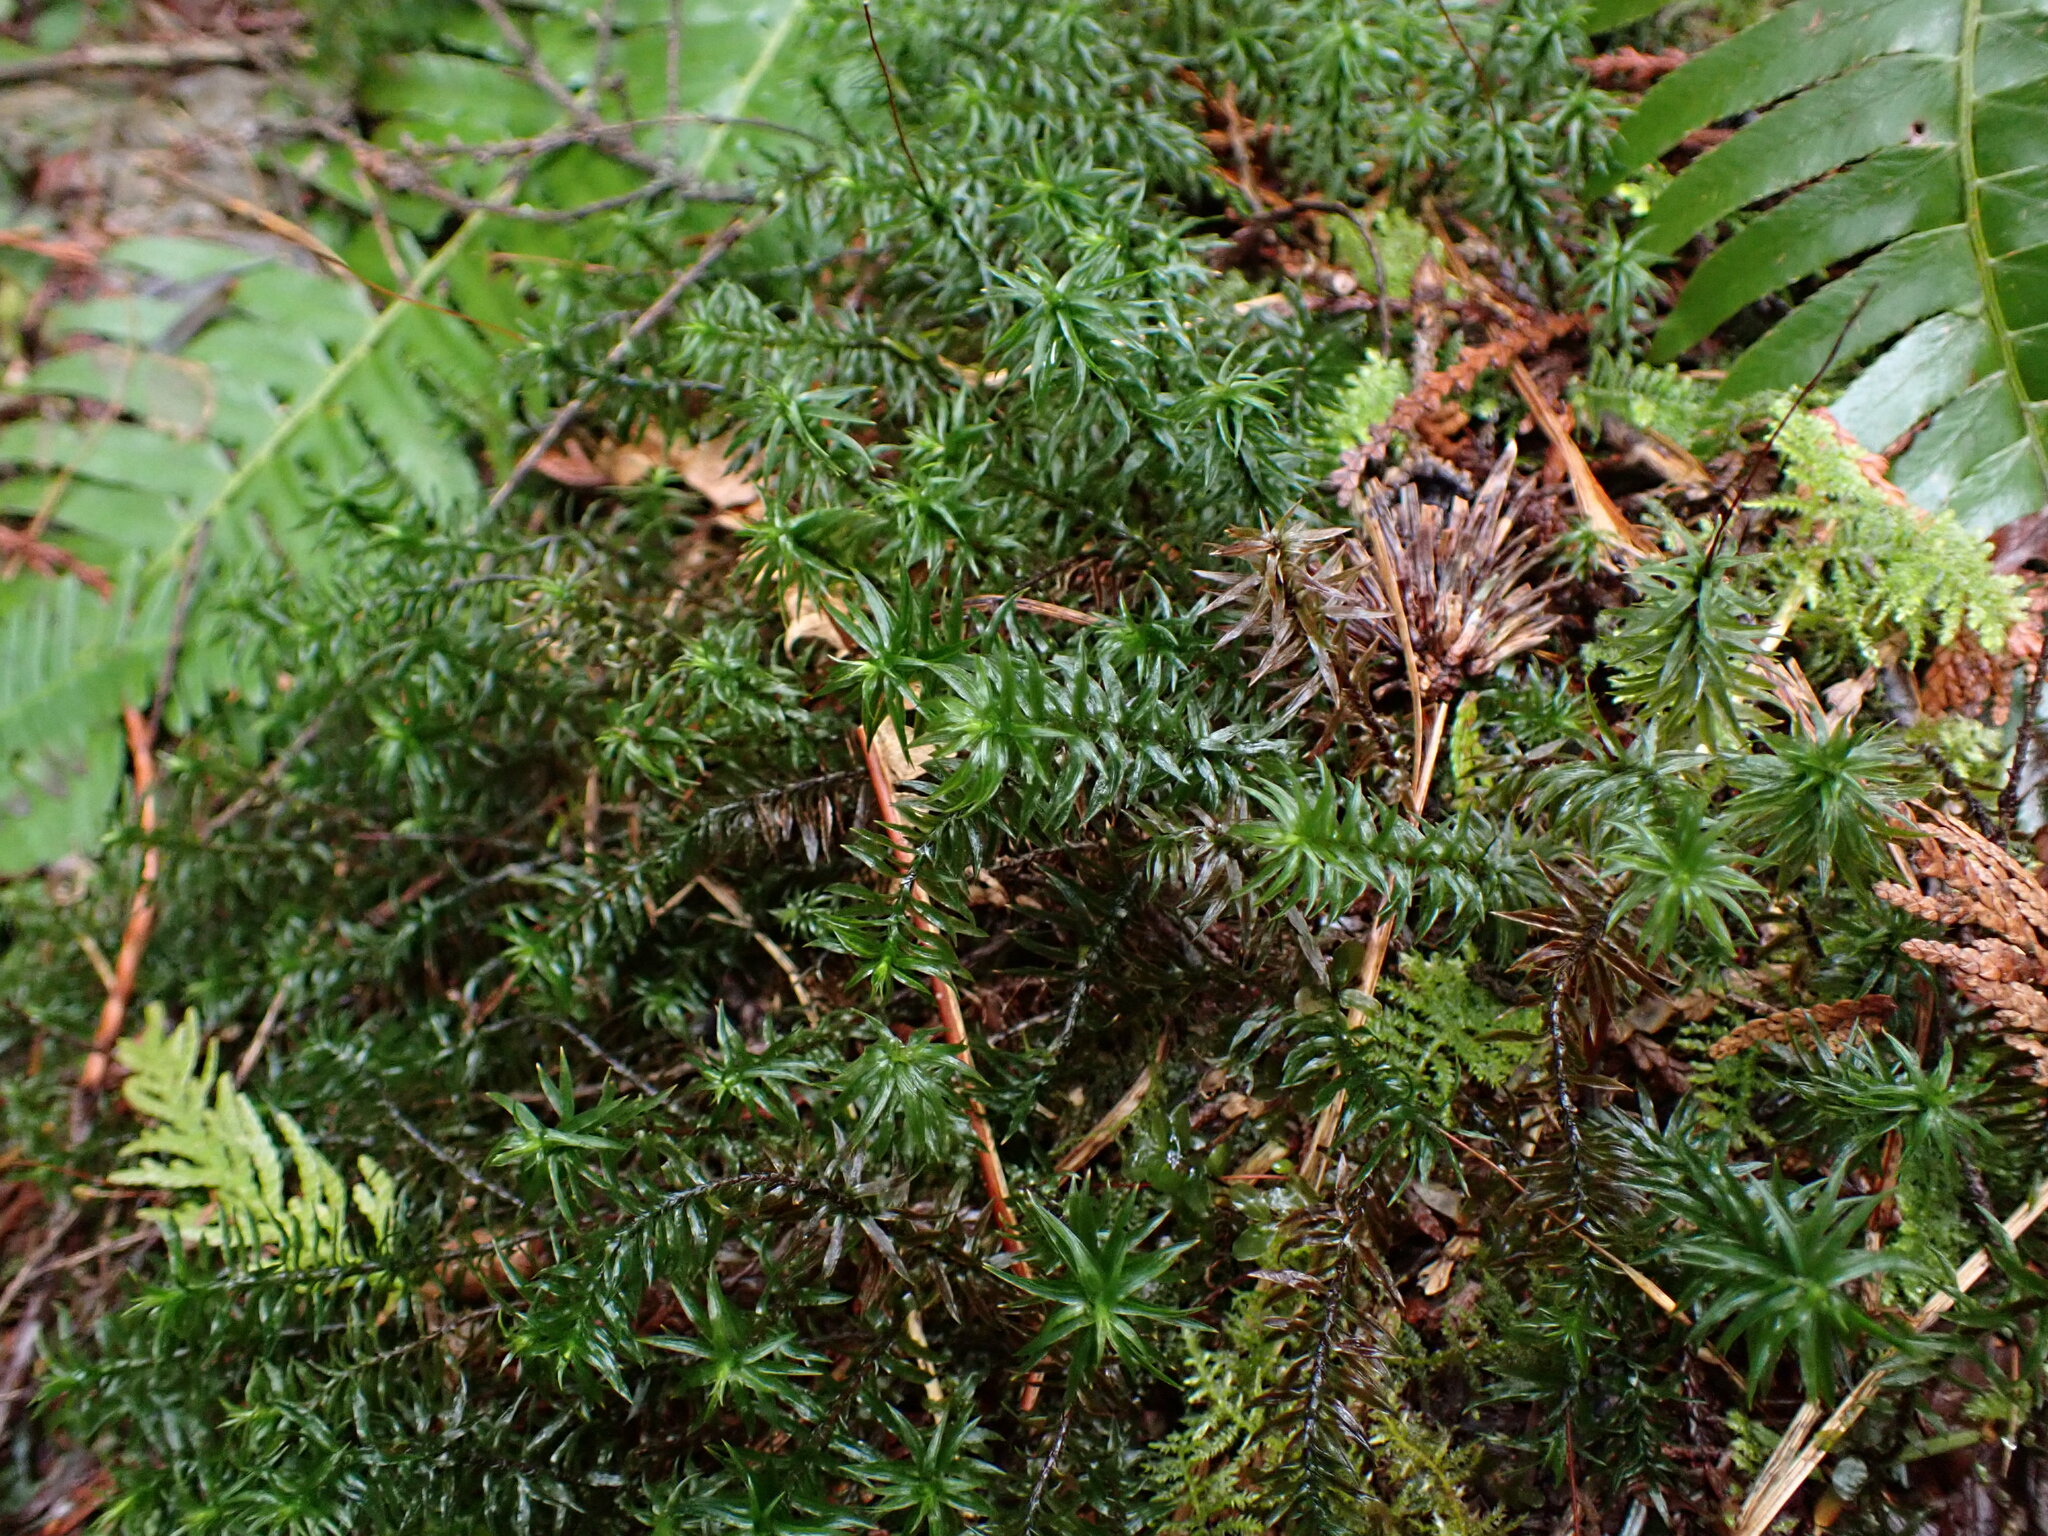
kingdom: Plantae
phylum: Bryophyta
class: Polytrichopsida
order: Polytrichales
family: Polytrichaceae
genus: Pogonatum
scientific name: Pogonatum contortum
